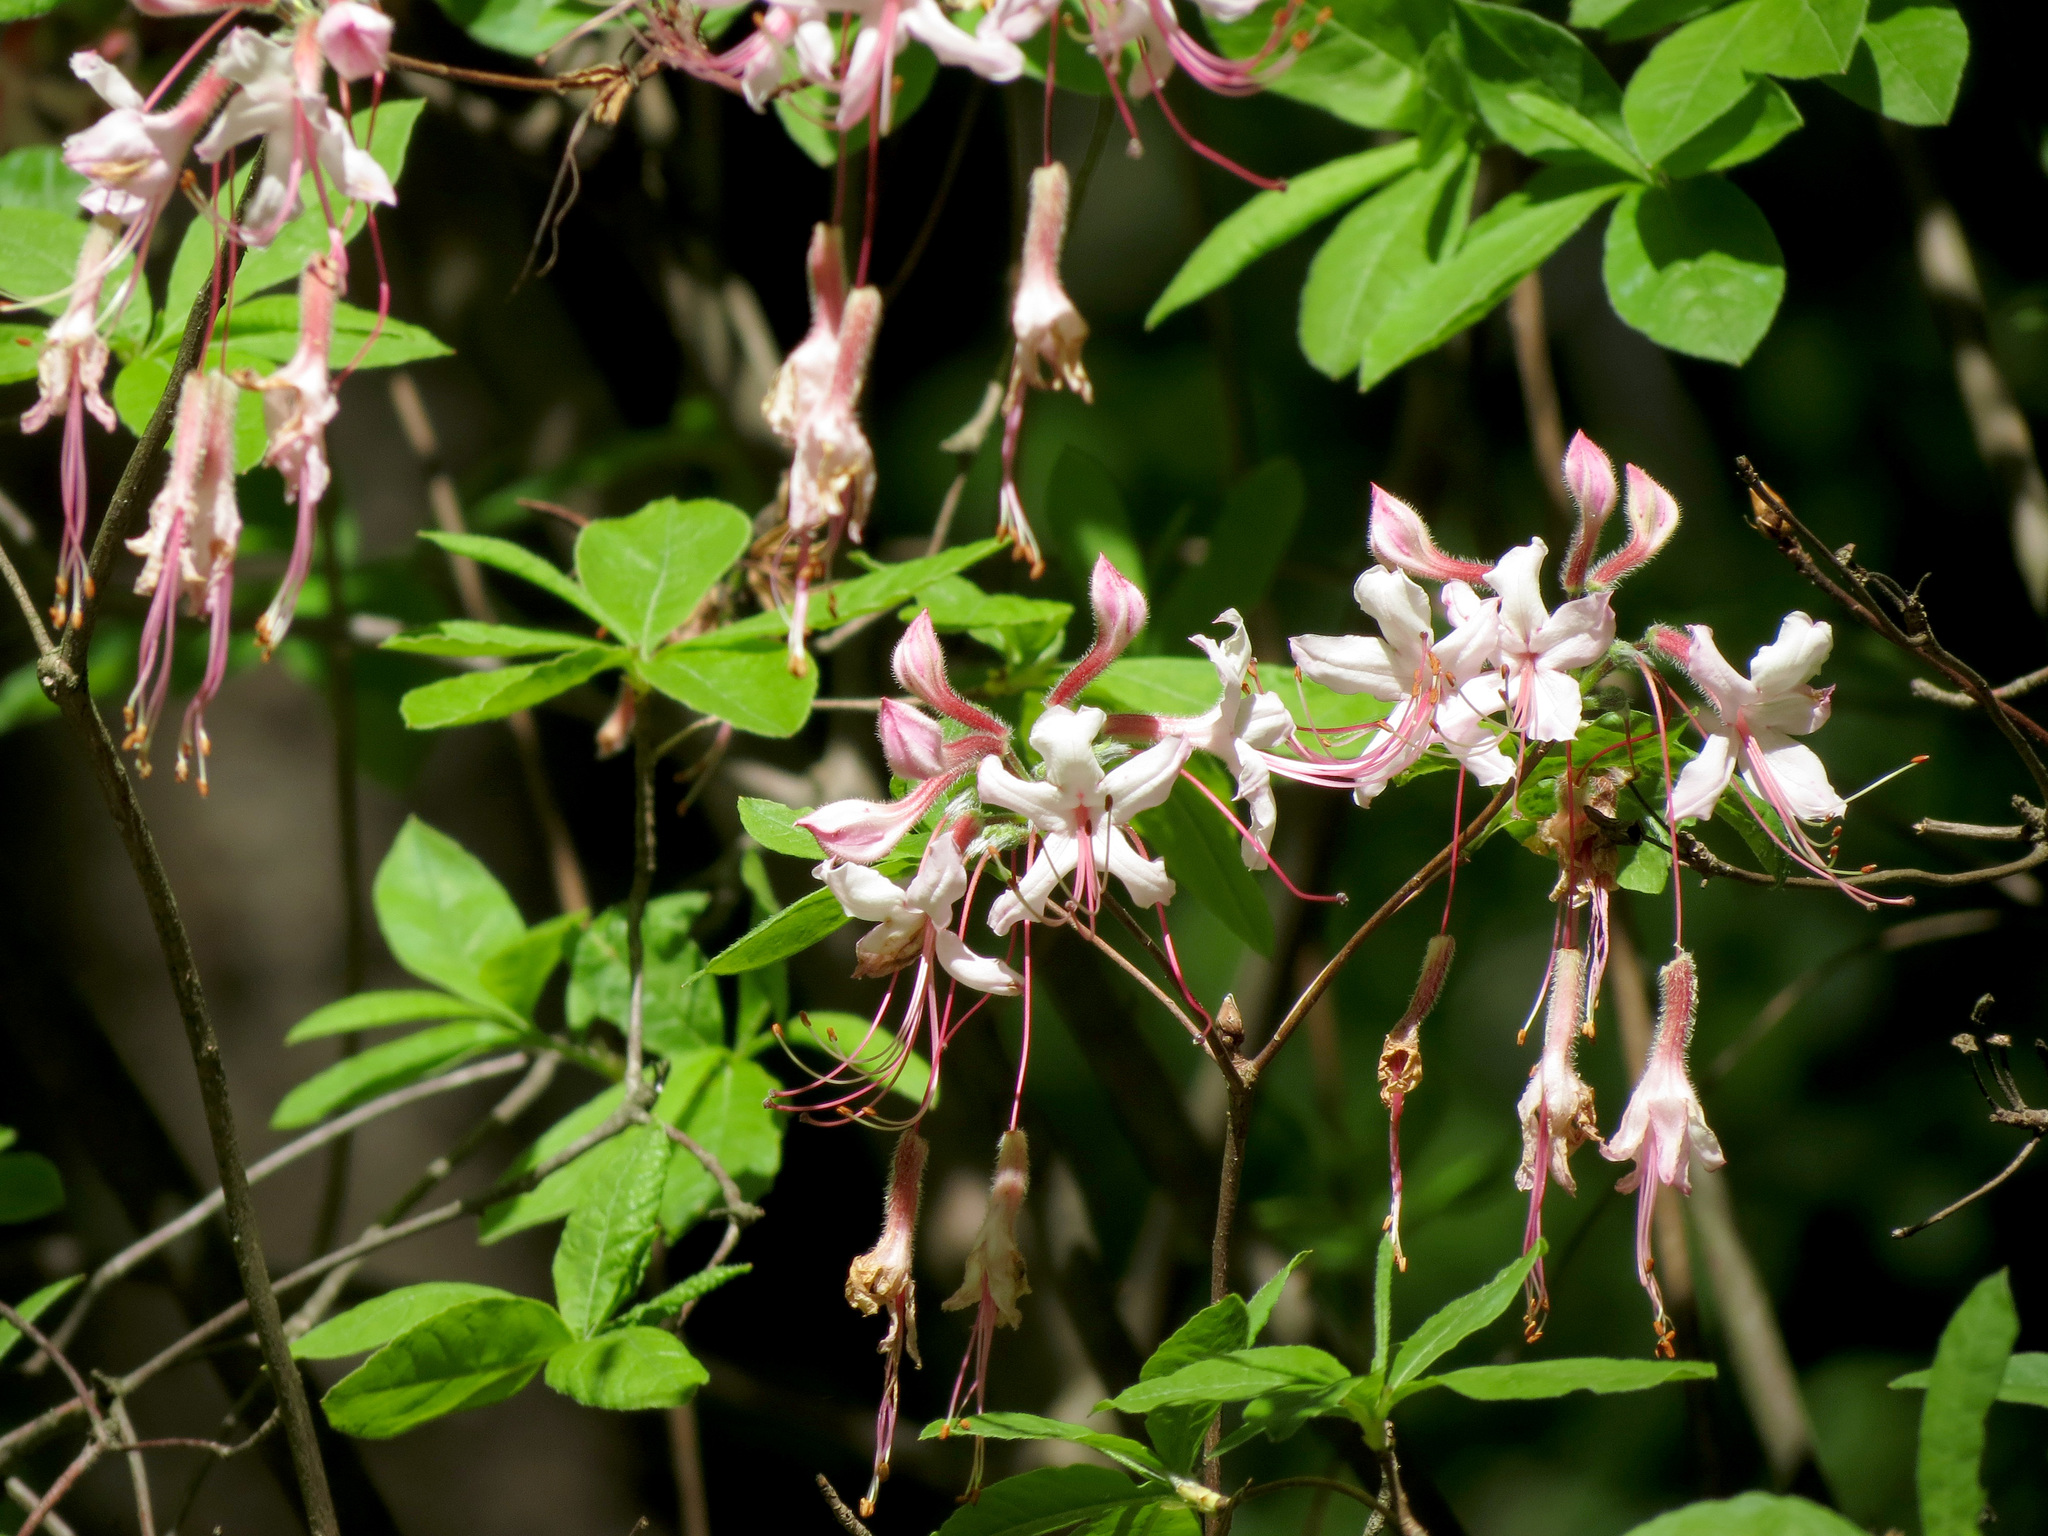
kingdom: Plantae
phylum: Tracheophyta
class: Magnoliopsida
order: Ericales
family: Ericaceae
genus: Rhododendron
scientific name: Rhododendron periclymenoides
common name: Election-pink
